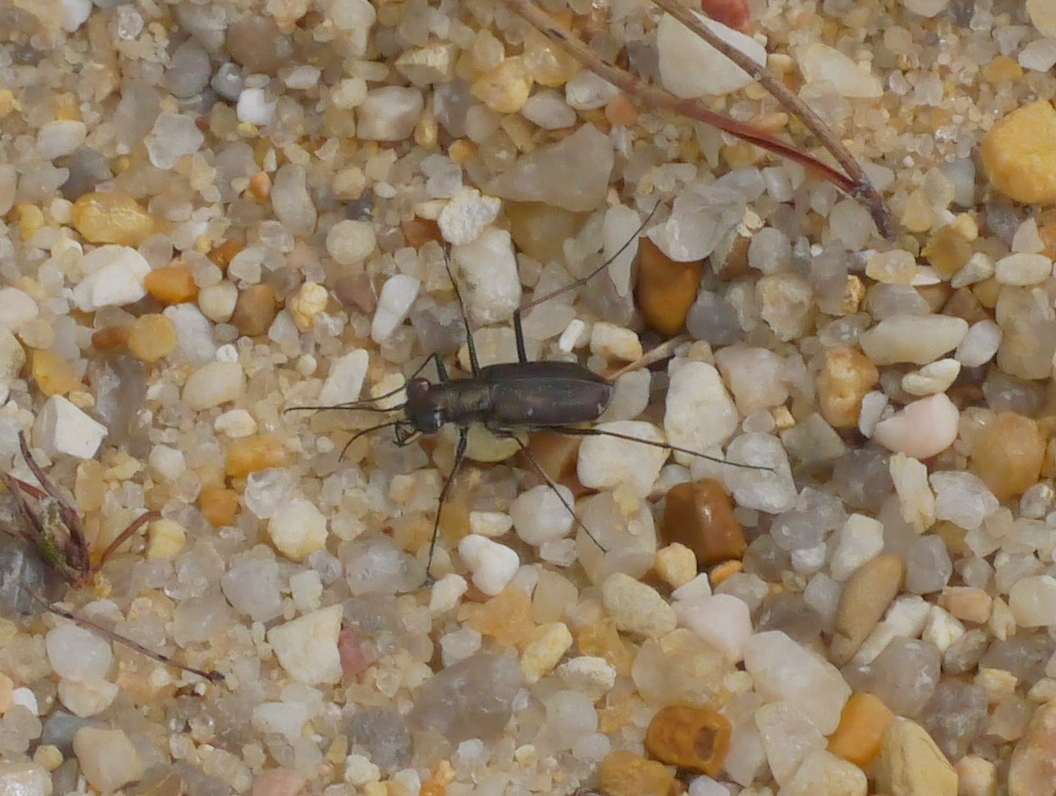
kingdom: Animalia
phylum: Arthropoda
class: Insecta
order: Coleoptera
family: Carabidae
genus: Cicindela
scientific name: Cicindela punctulata
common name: Punctured tiger beetle
